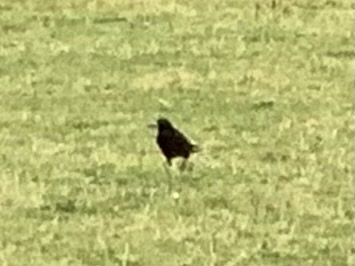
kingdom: Animalia
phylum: Chordata
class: Aves
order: Passeriformes
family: Corvidae
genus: Corvus
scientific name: Corvus frugilegus
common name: Rook
